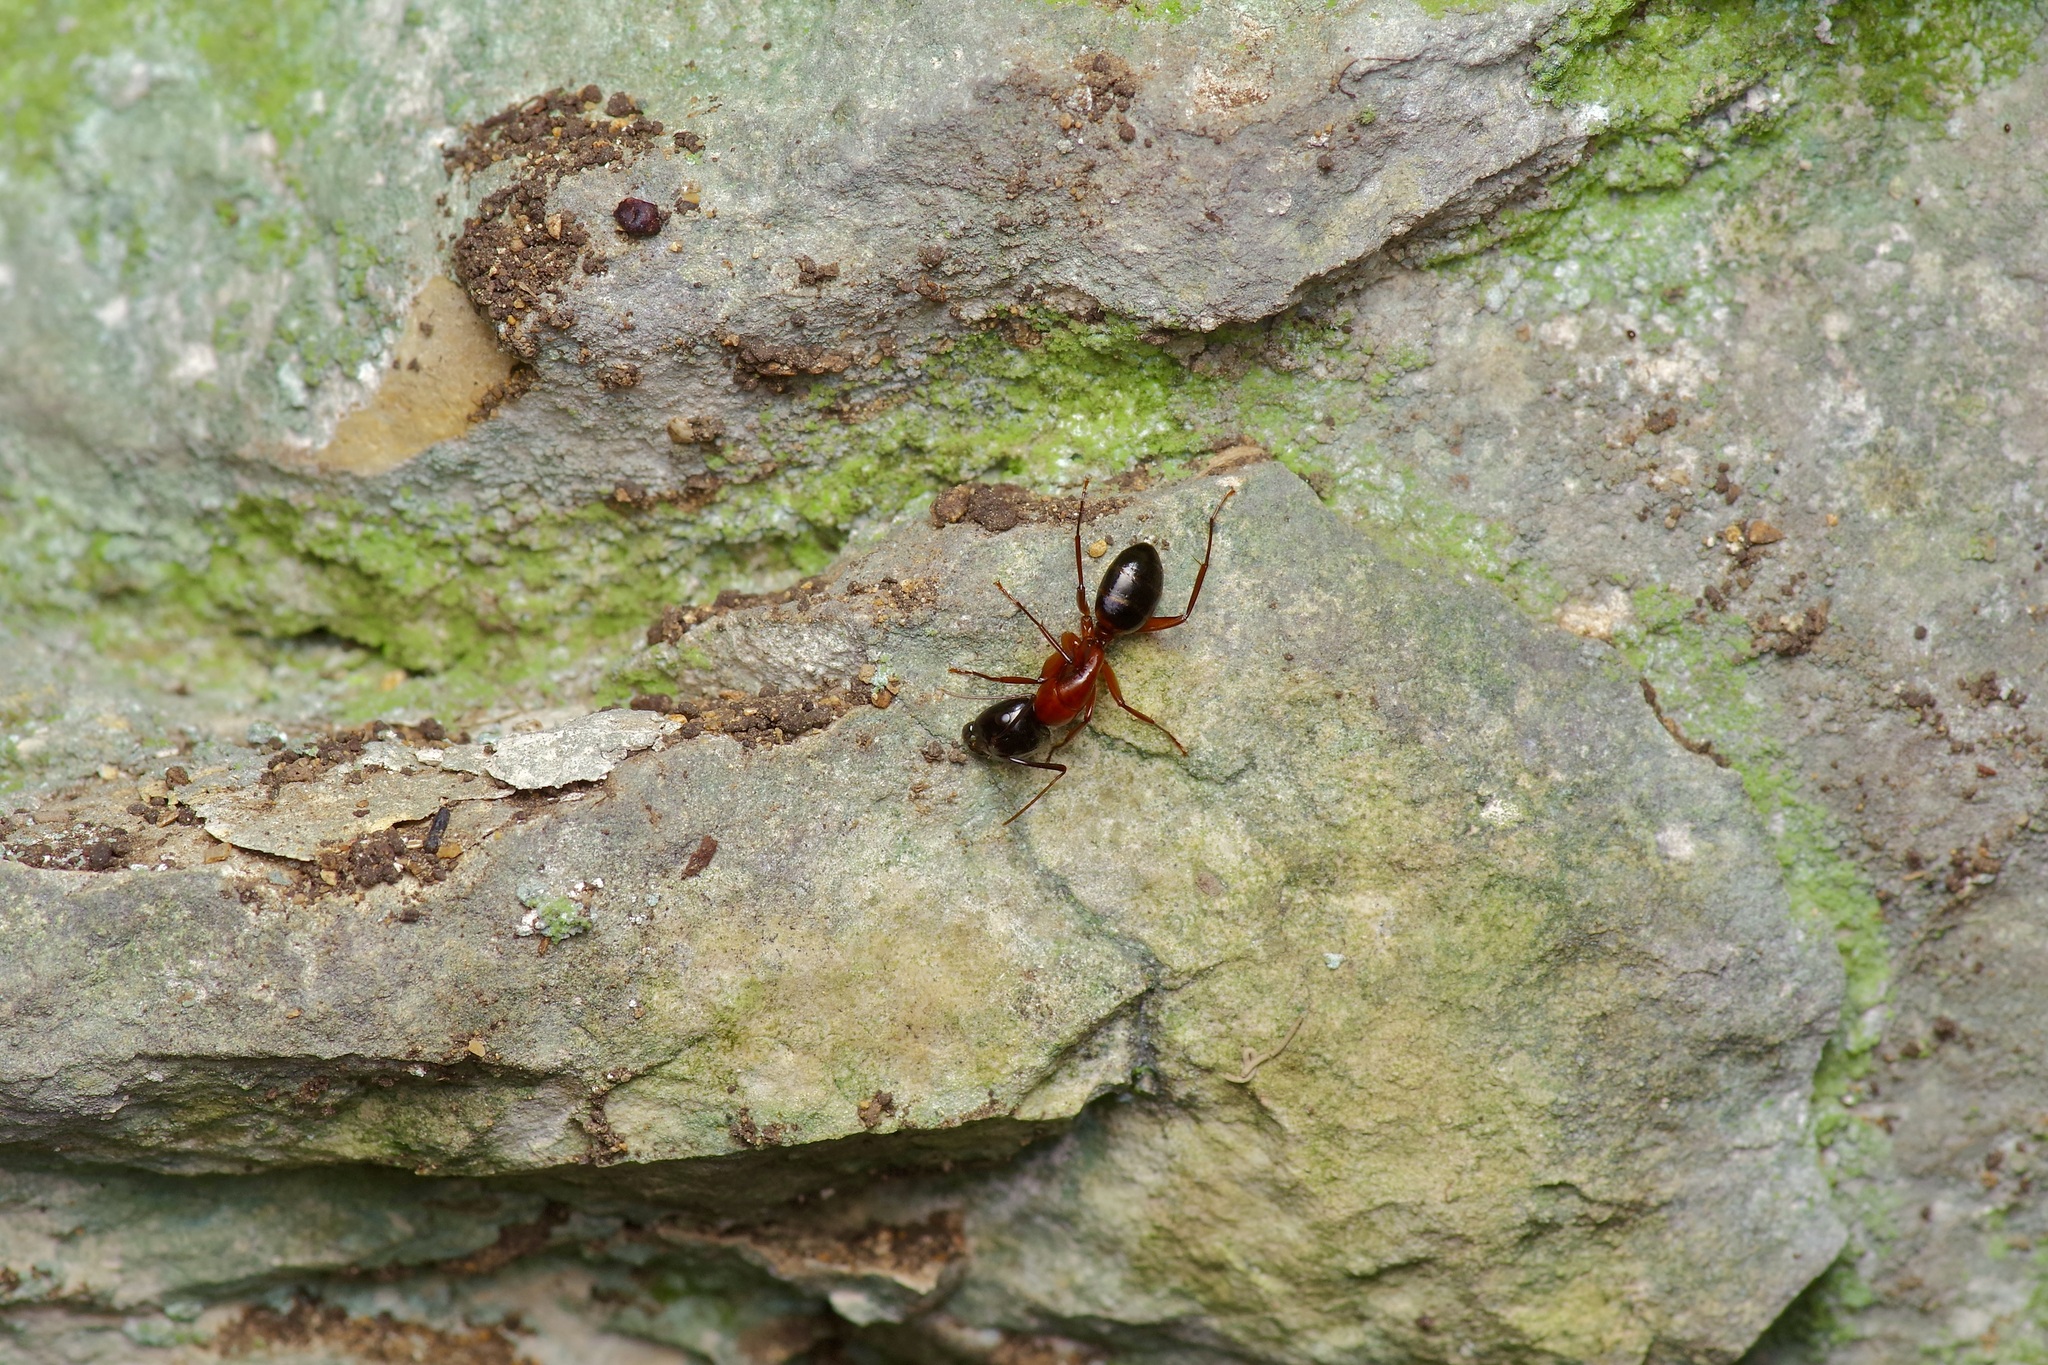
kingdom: Animalia
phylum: Arthropoda
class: Insecta
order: Hymenoptera
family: Formicidae
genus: Camponotus
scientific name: Camponotus texanus
